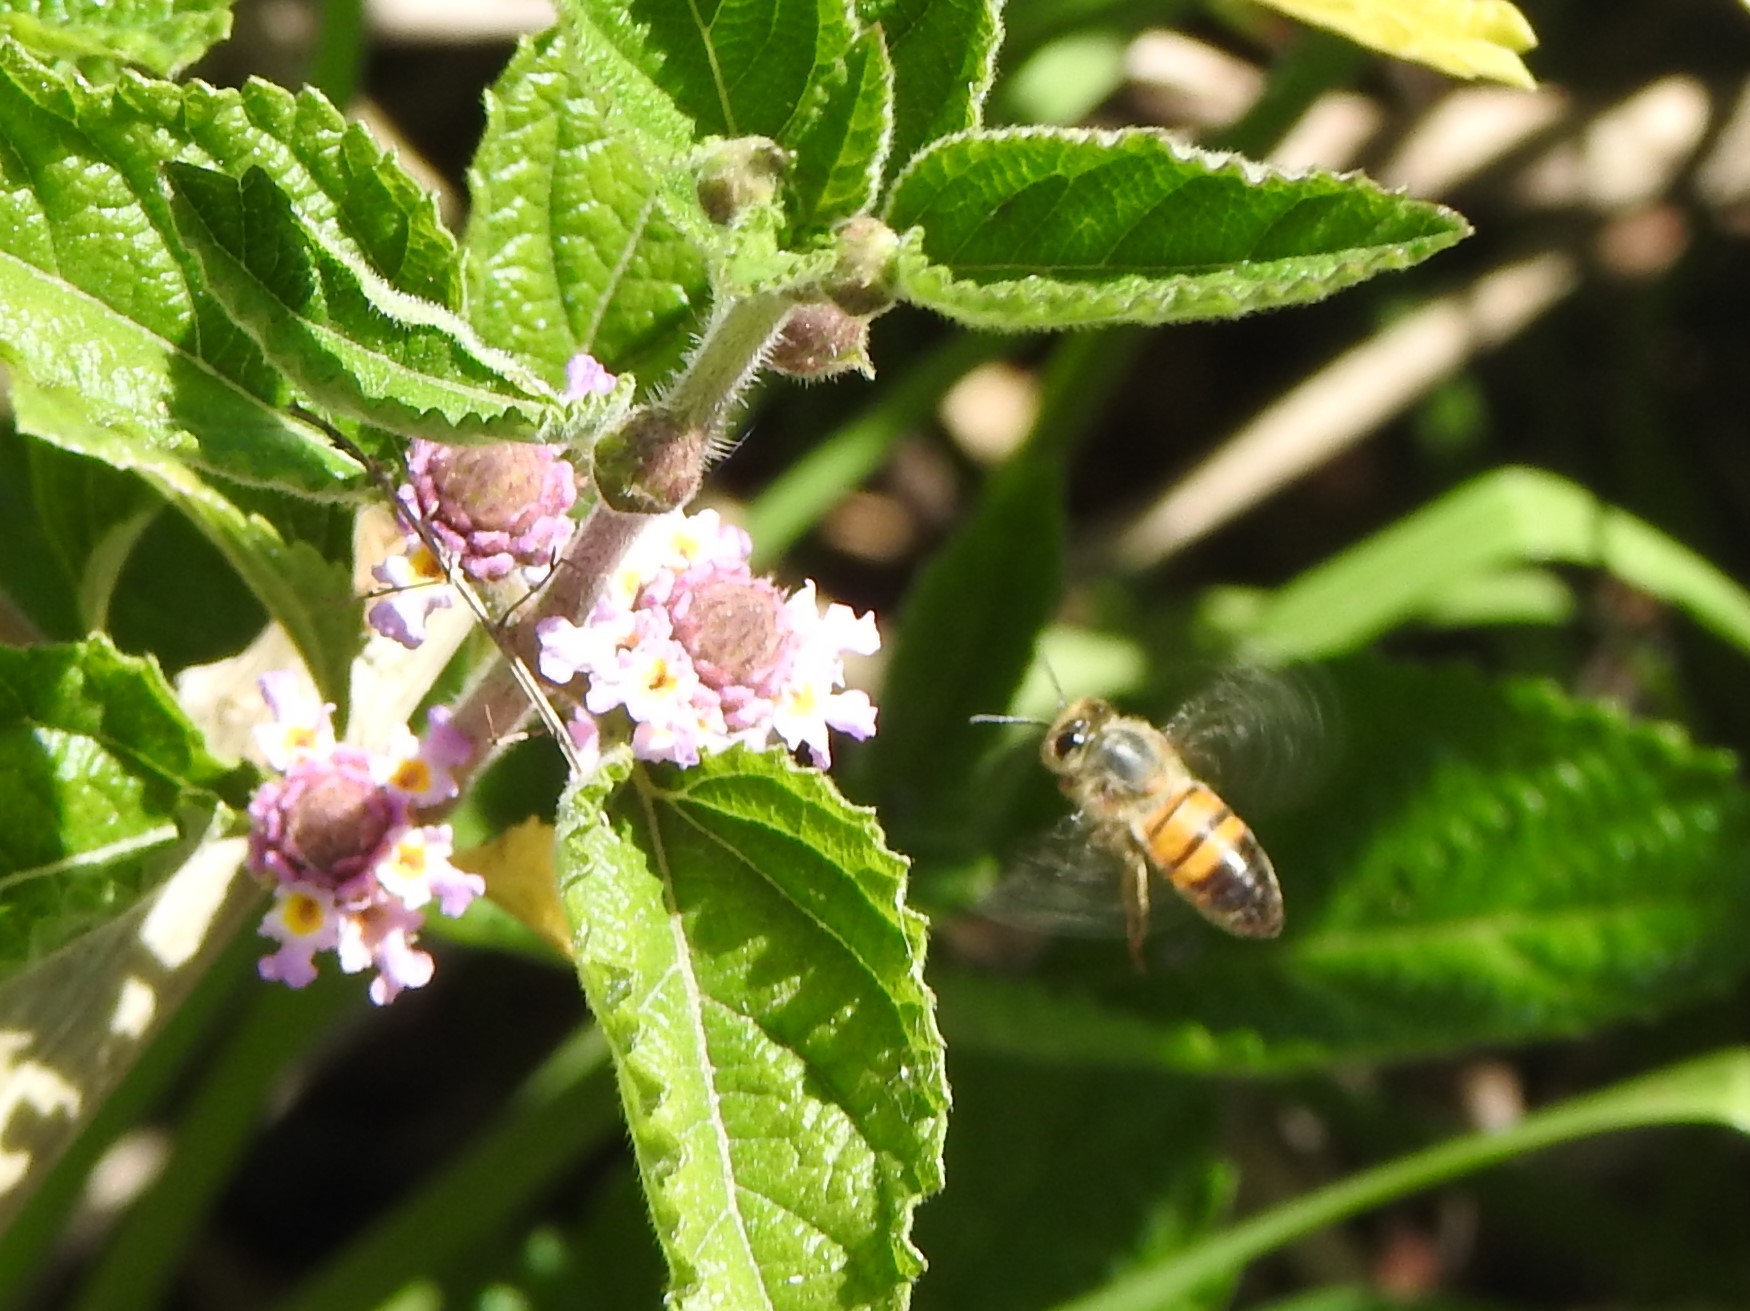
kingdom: Animalia
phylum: Arthropoda
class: Insecta
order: Hymenoptera
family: Apidae
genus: Apis
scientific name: Apis mellifera
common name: Honey bee
